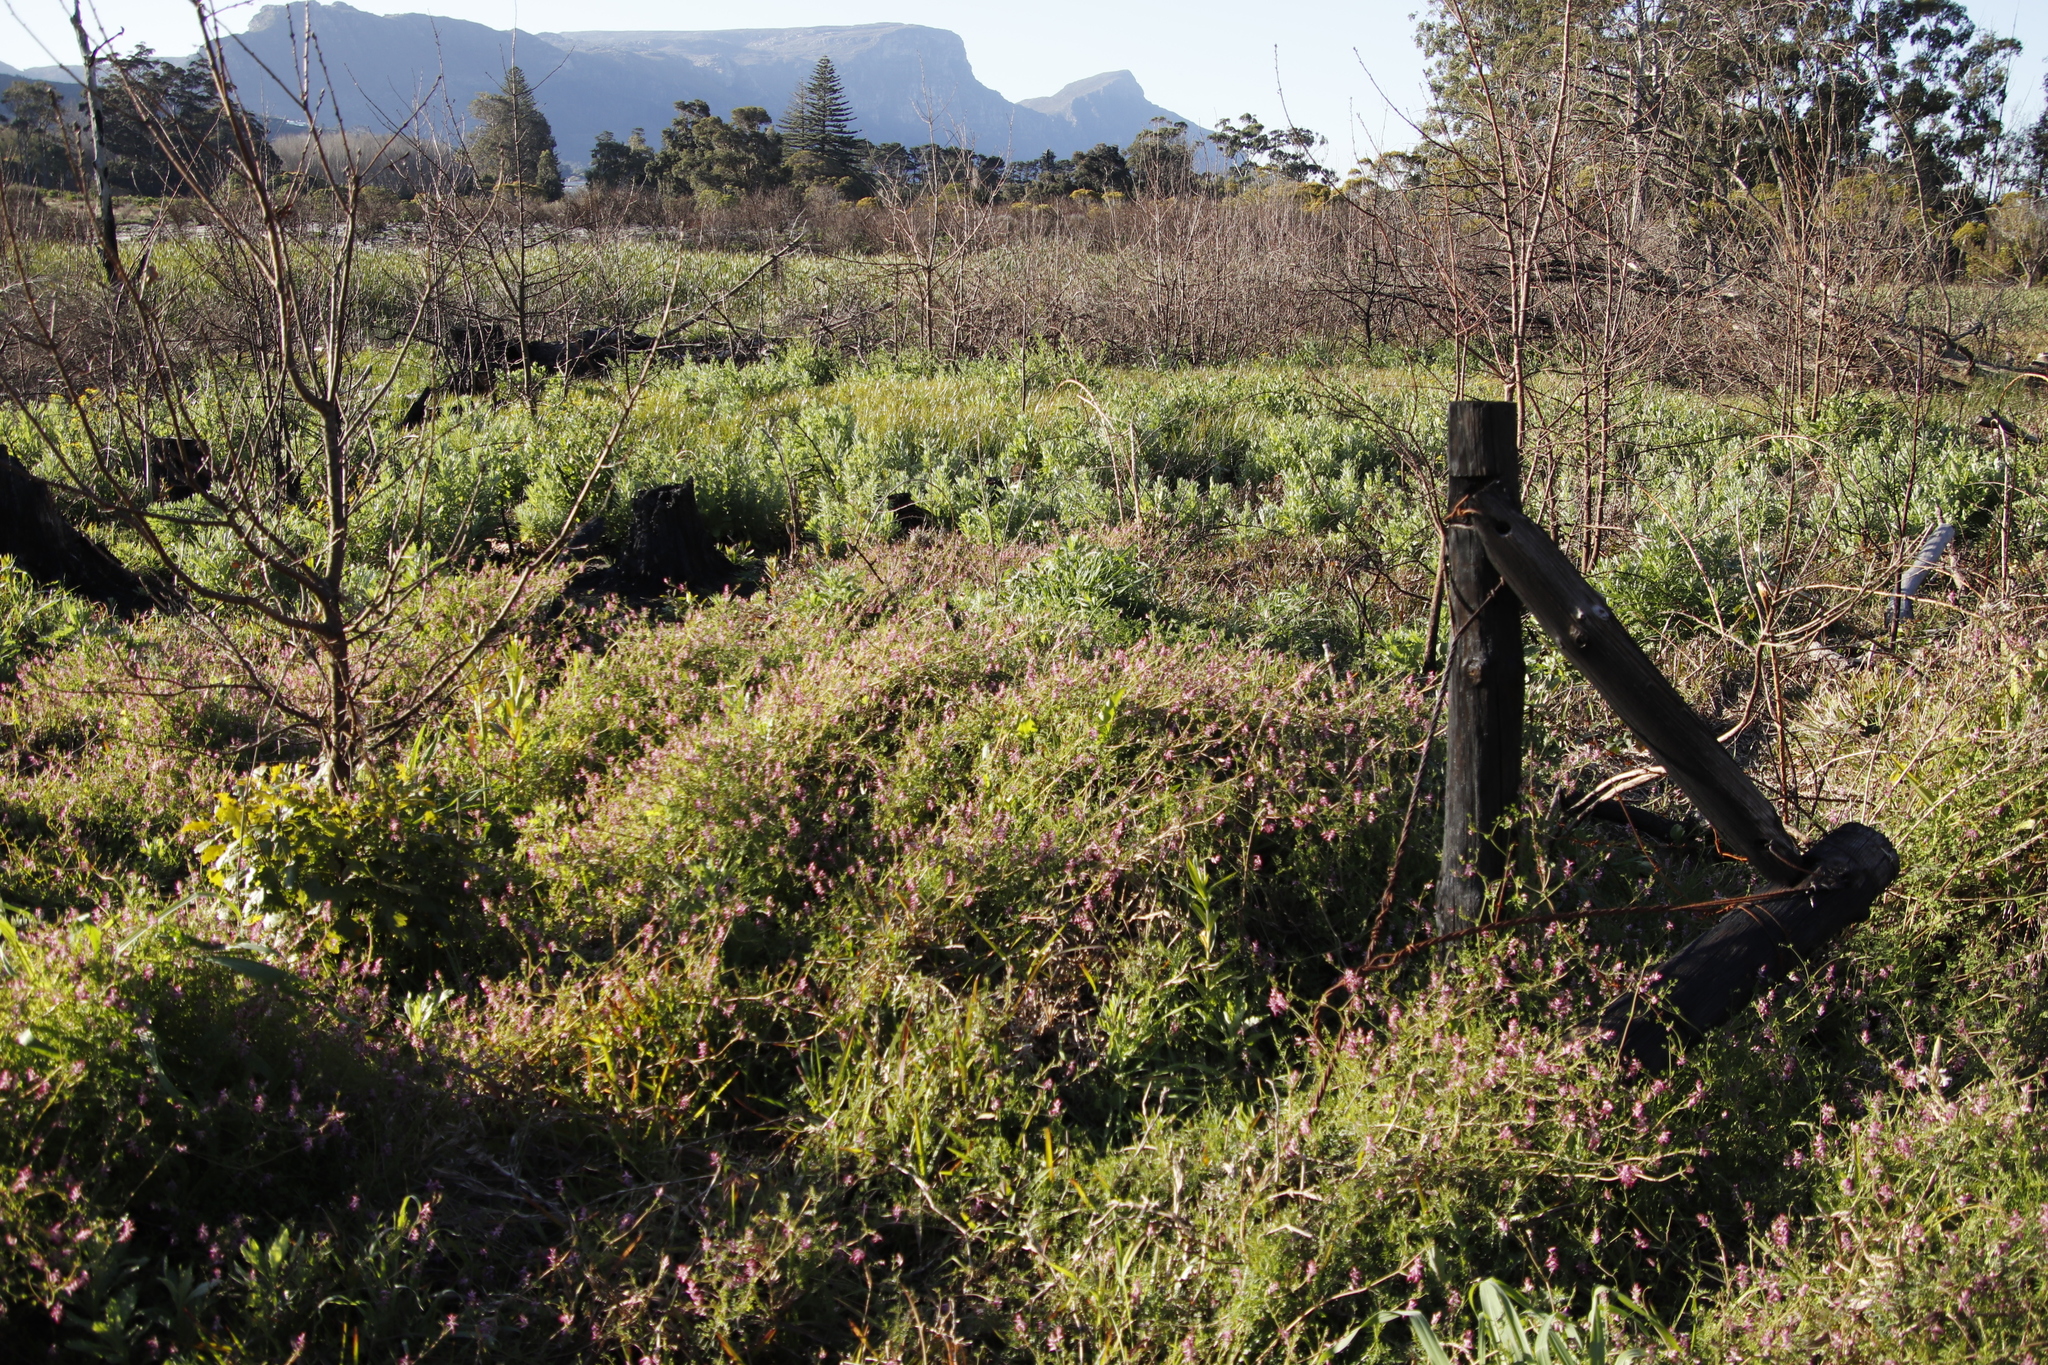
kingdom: Plantae
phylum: Tracheophyta
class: Magnoliopsida
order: Ranunculales
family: Papaveraceae
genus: Fumaria
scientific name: Fumaria muralis
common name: Common ramping-fumitory
